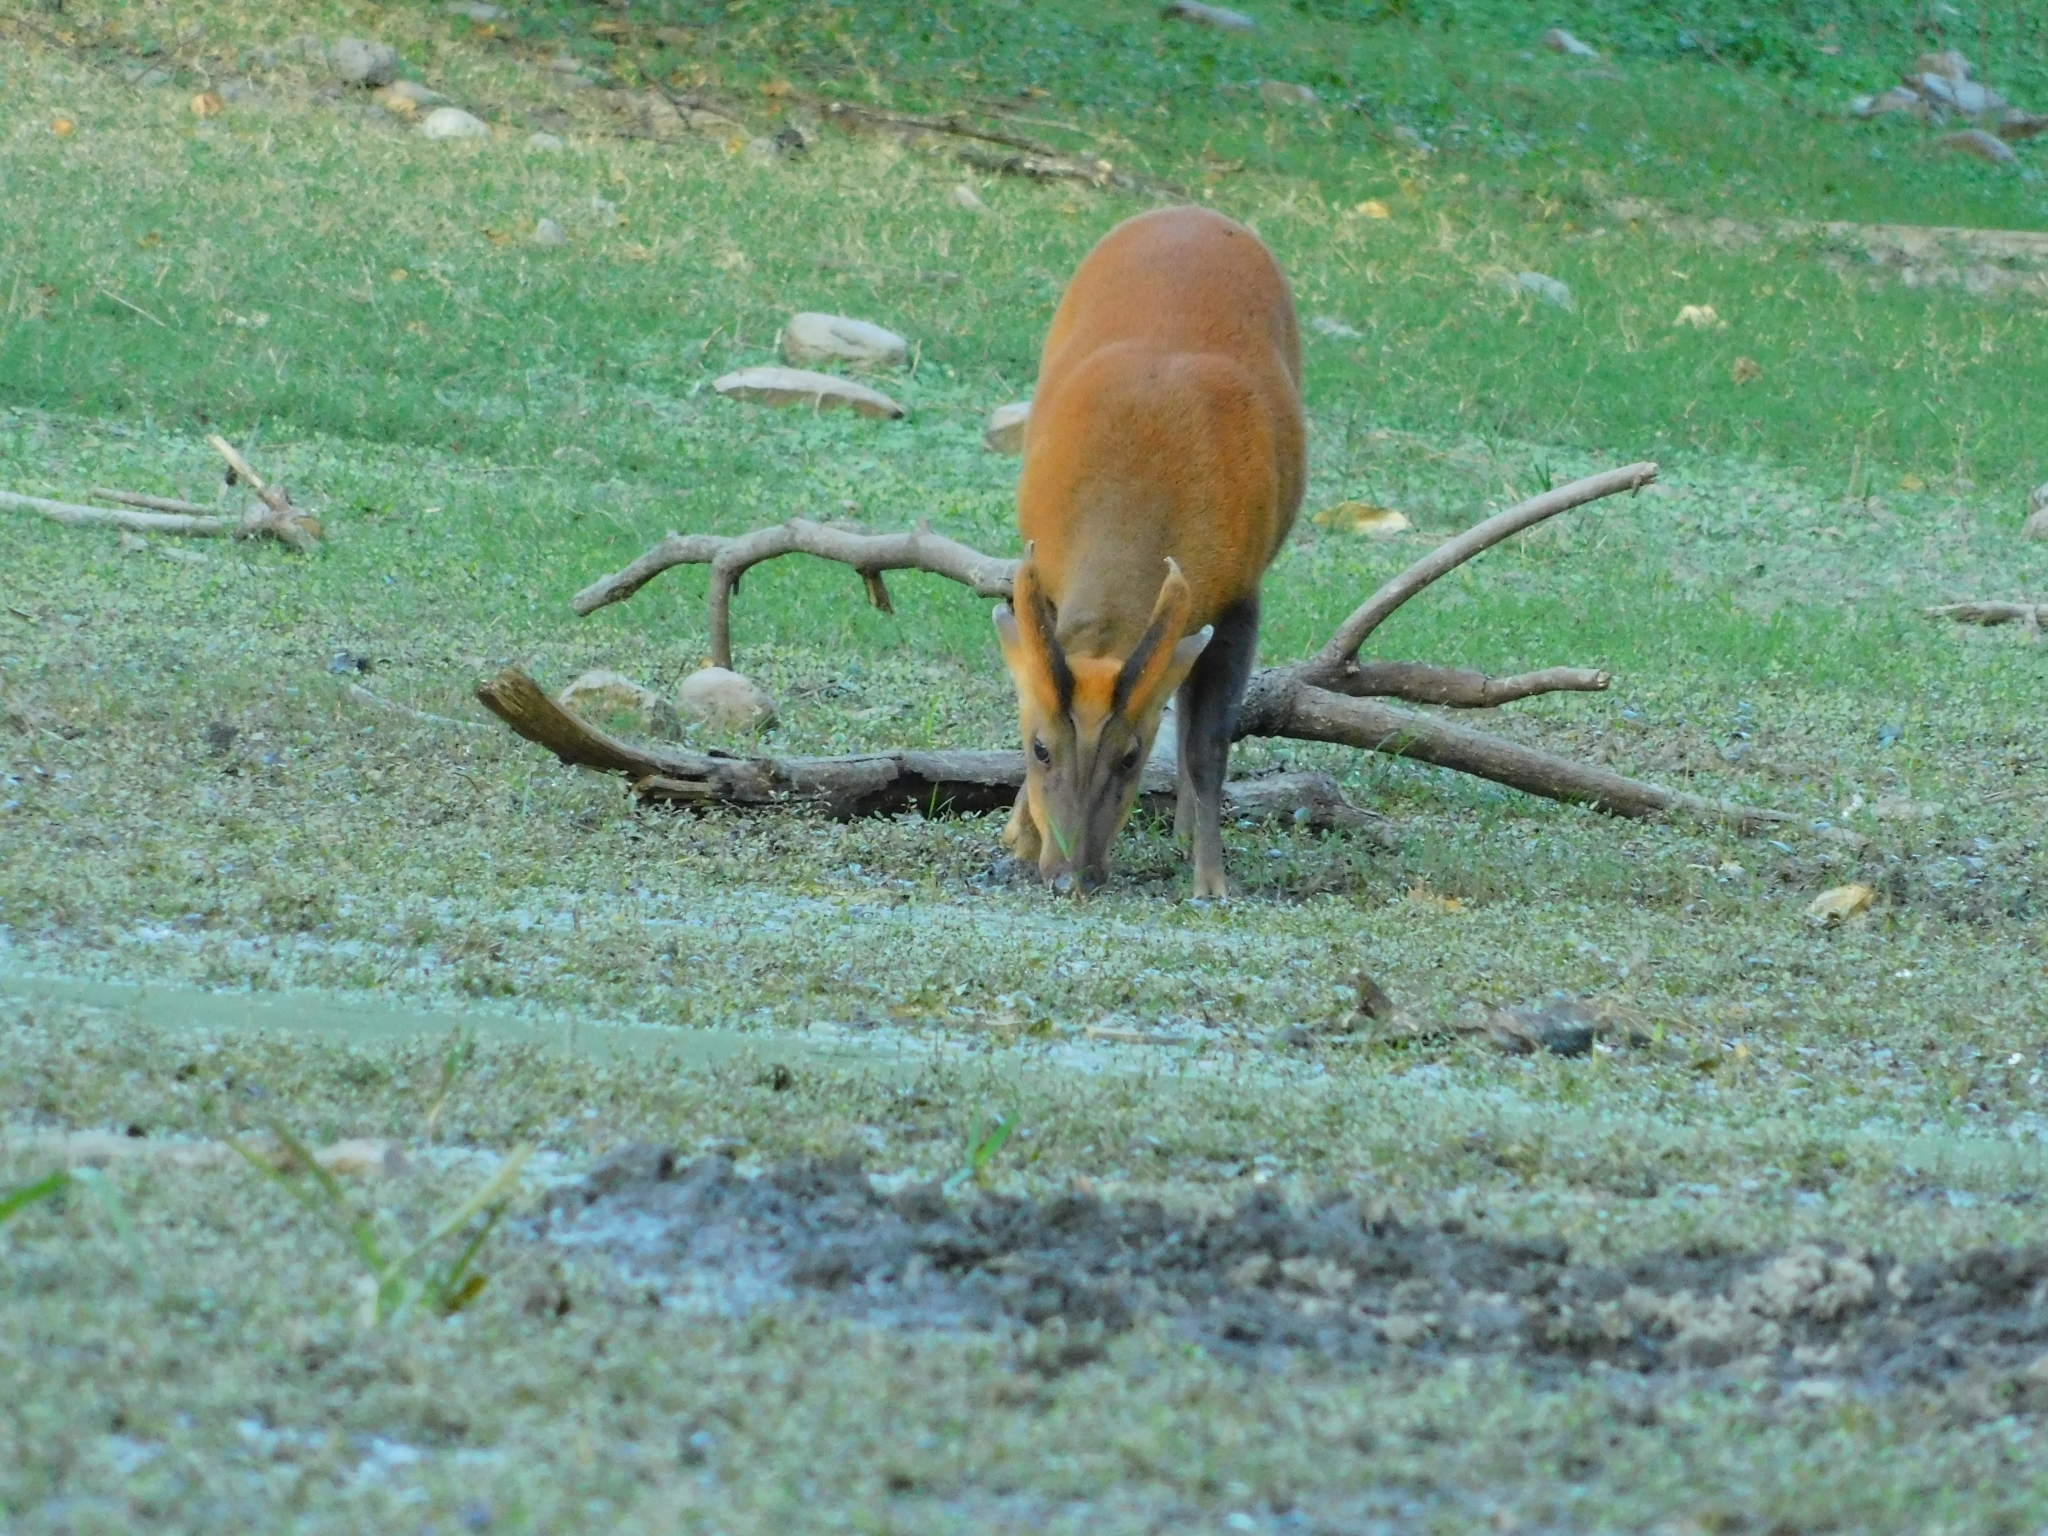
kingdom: Animalia
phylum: Chordata
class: Mammalia
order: Artiodactyla
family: Cervidae
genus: Muntiacus
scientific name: Muntiacus muntjak
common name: Indian muntjac
